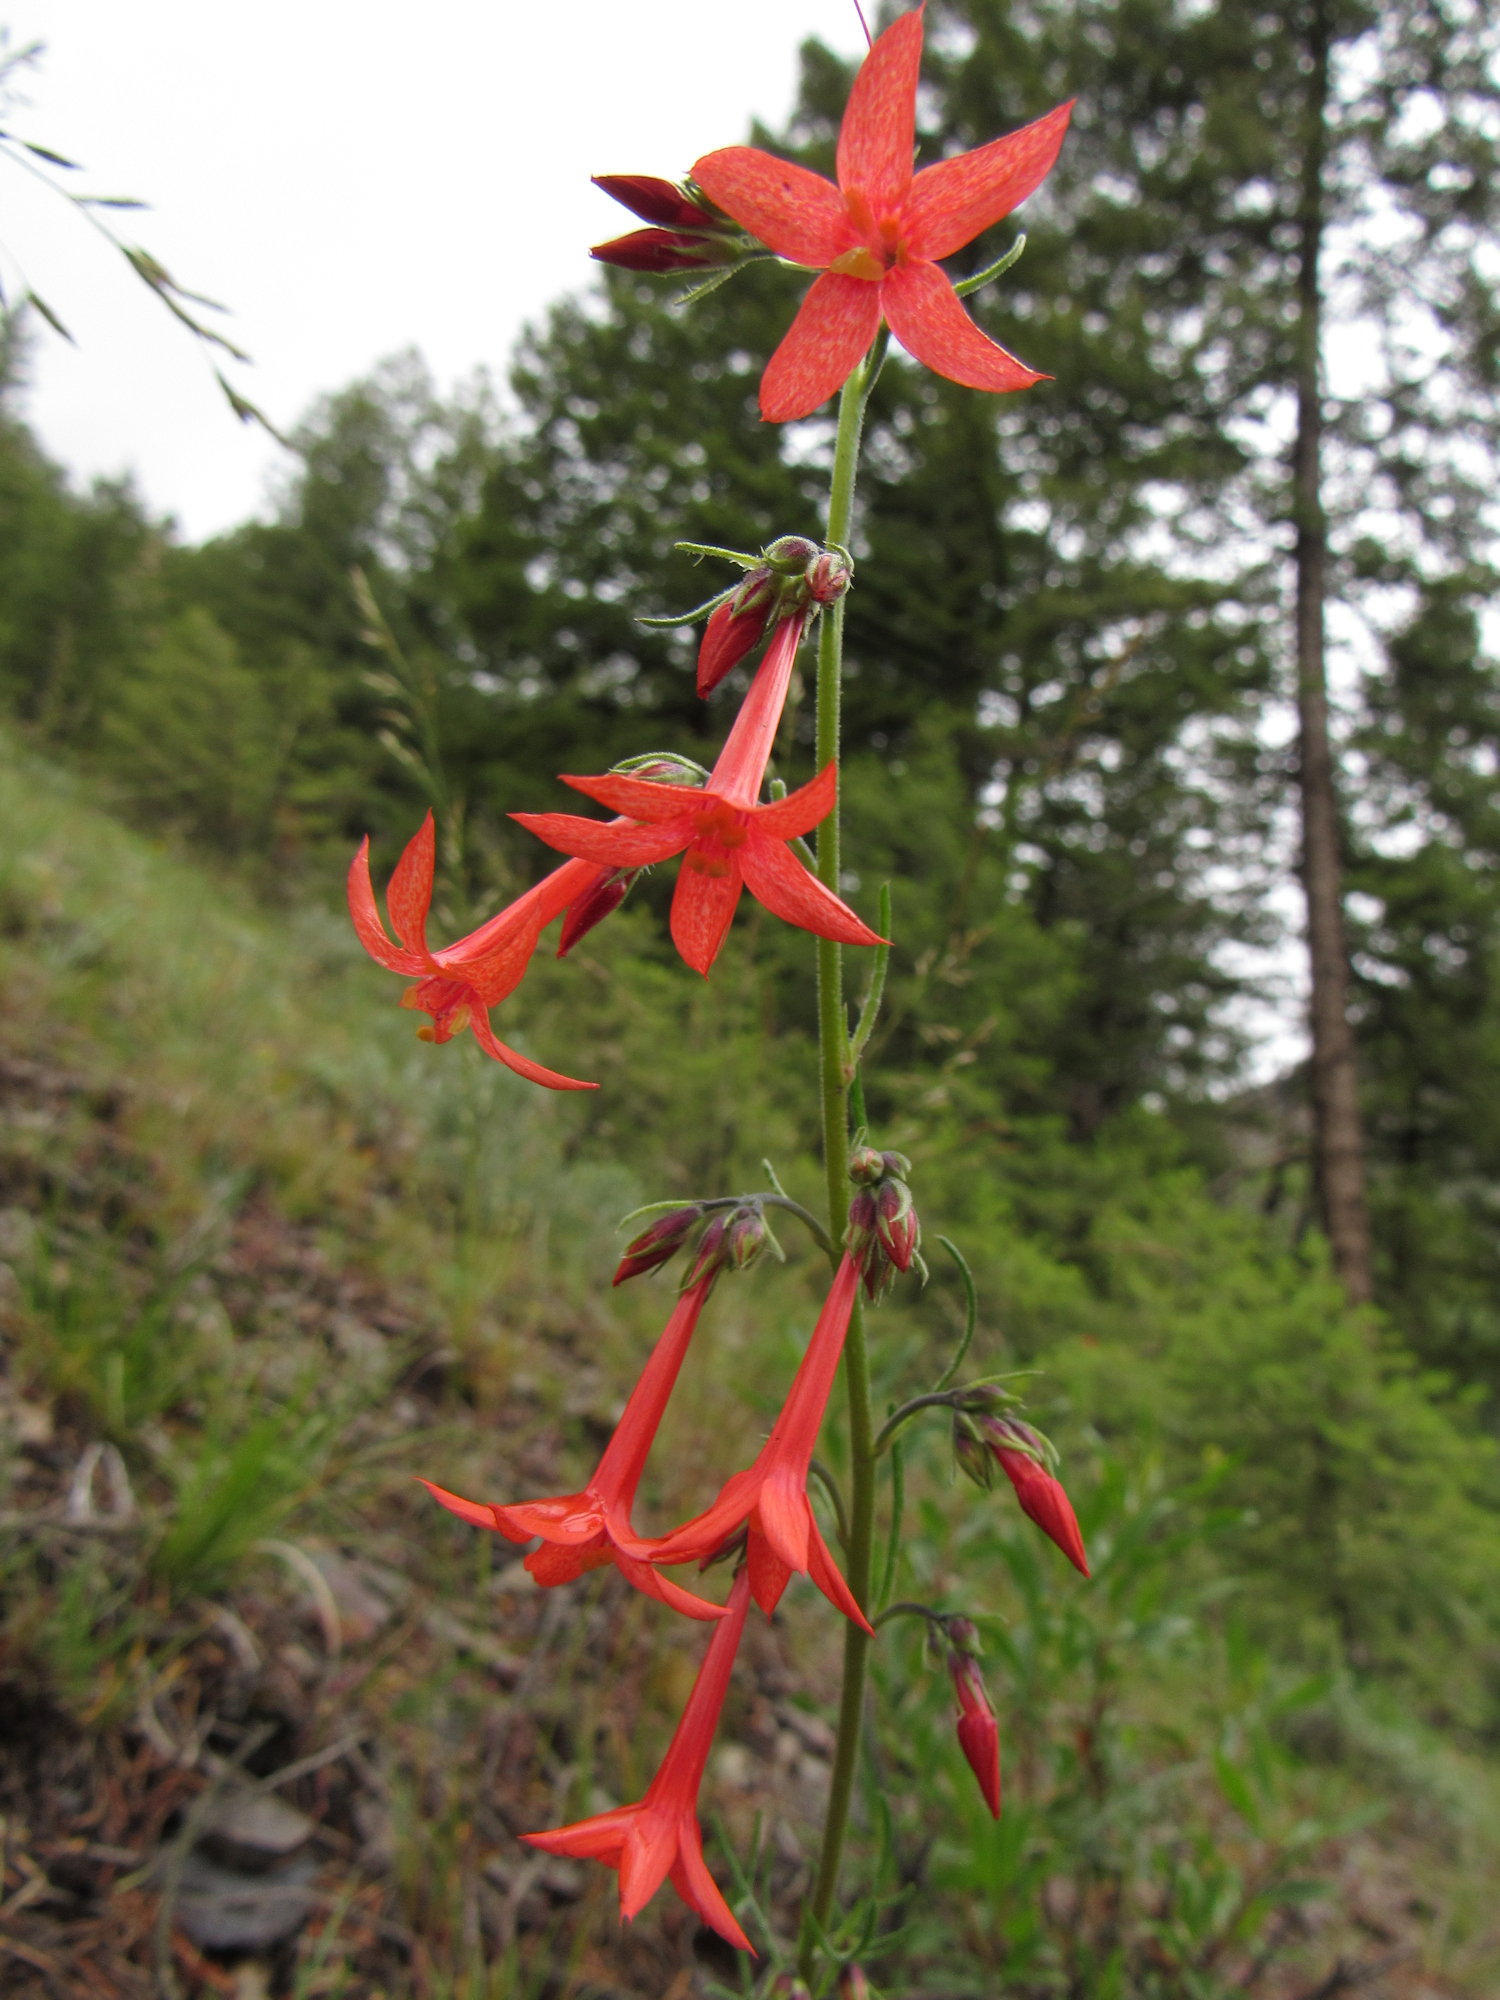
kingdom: Plantae
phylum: Tracheophyta
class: Magnoliopsida
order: Ericales
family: Polemoniaceae
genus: Ipomopsis
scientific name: Ipomopsis aggregata
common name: Scarlet gilia
